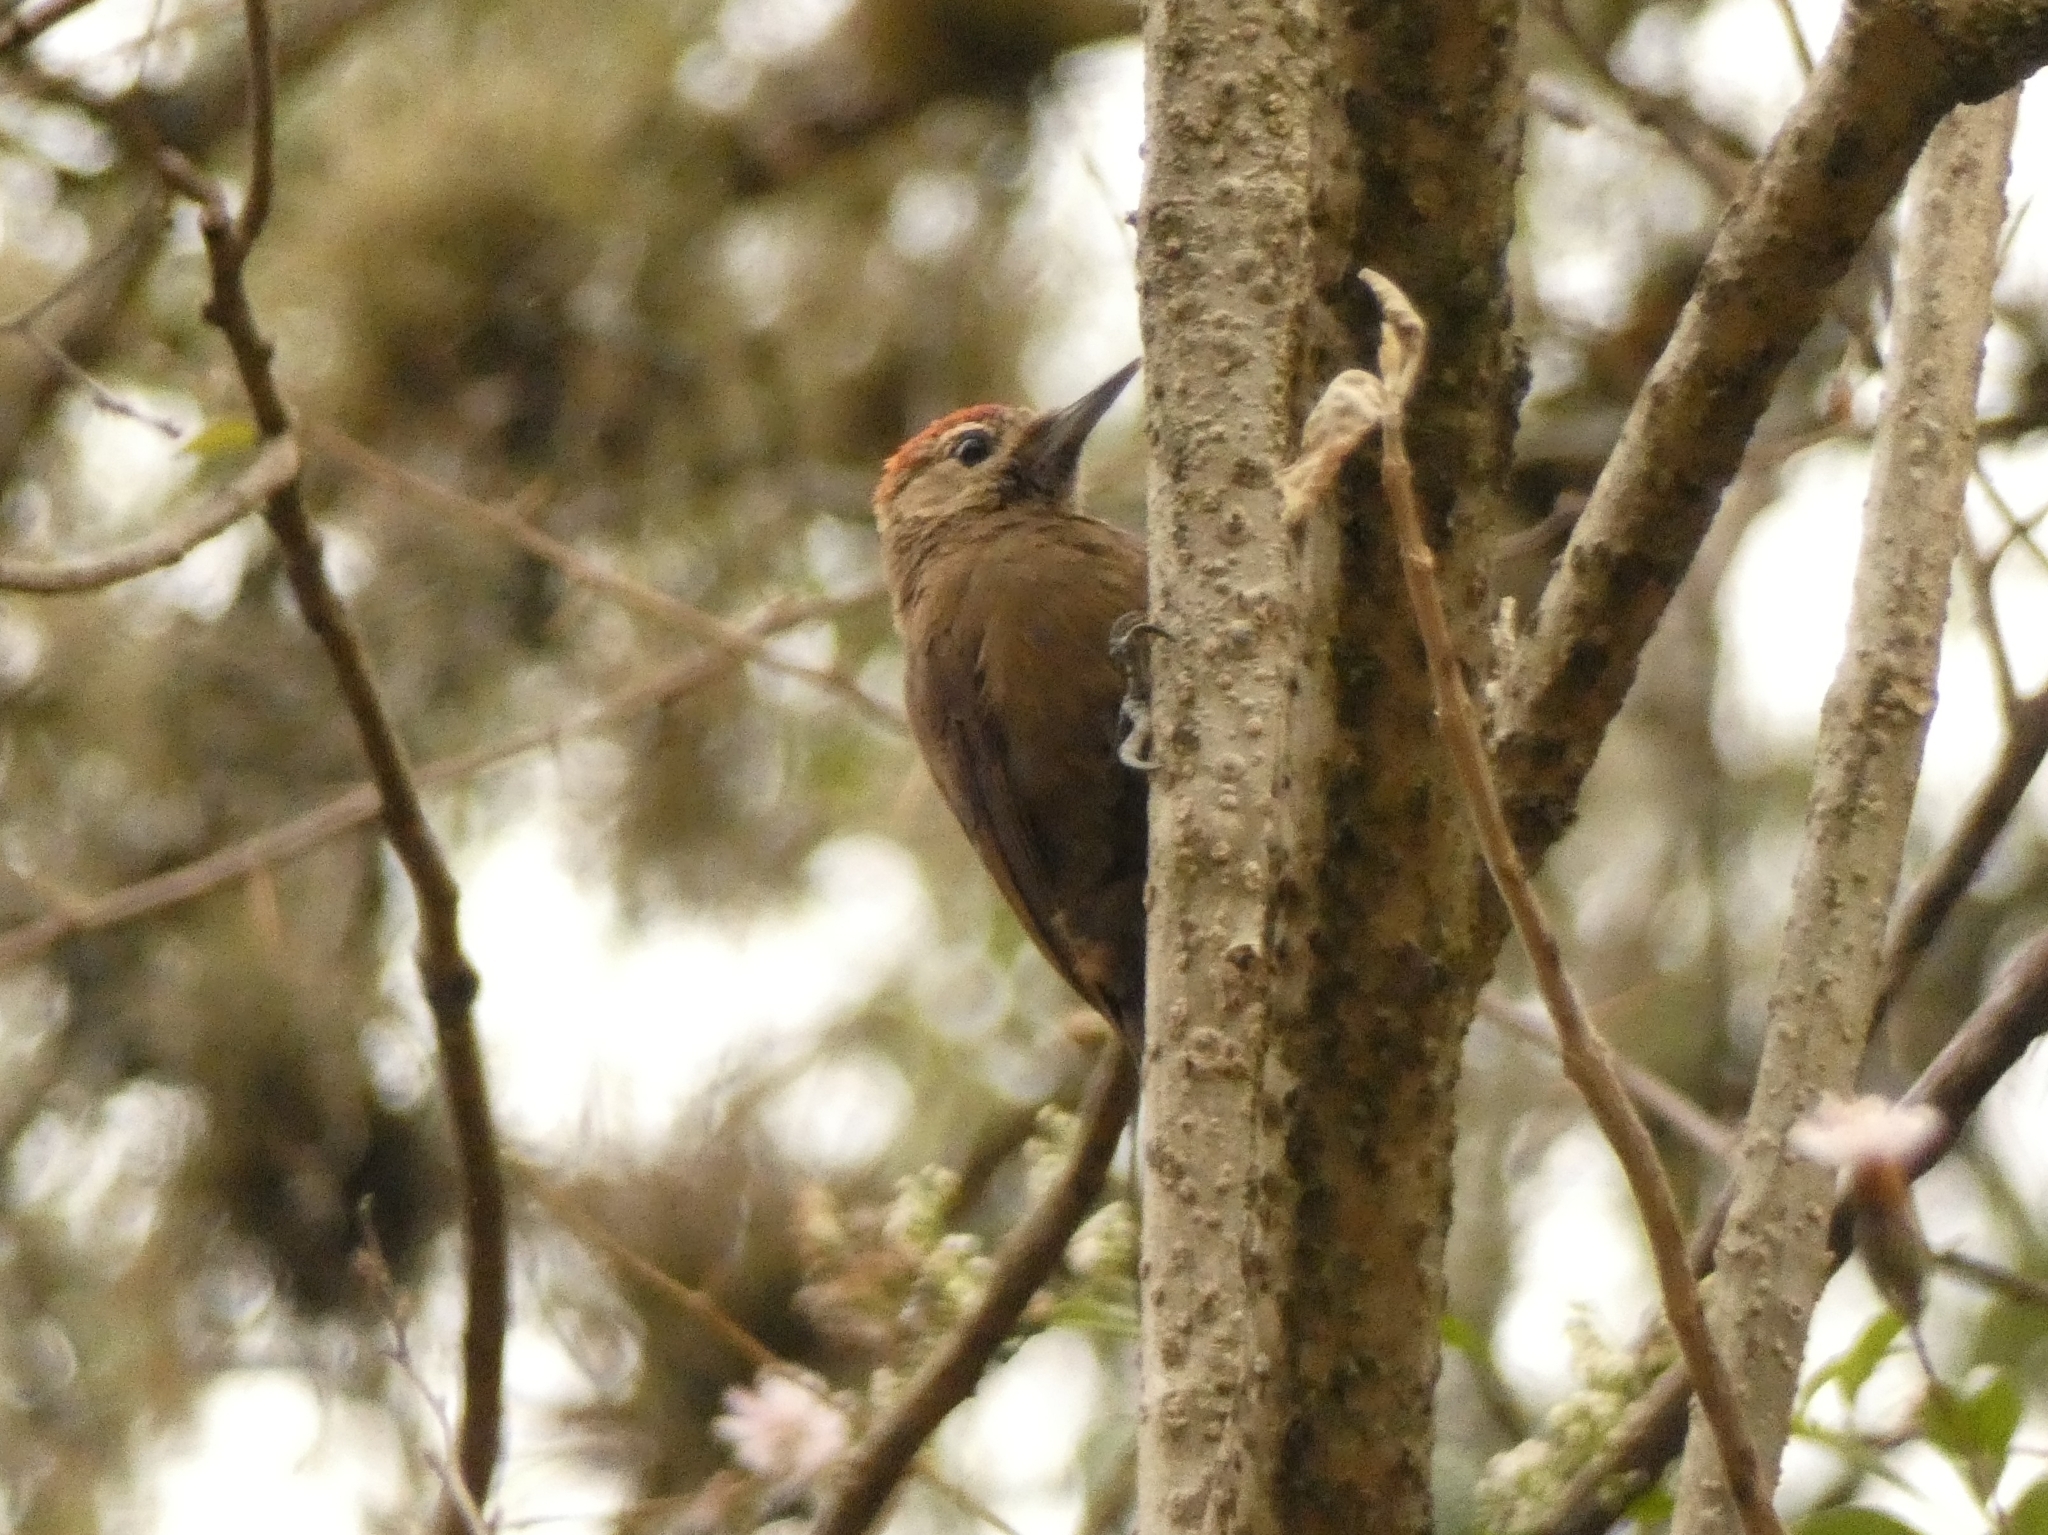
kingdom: Animalia
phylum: Chordata
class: Aves
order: Piciformes
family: Picidae
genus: Leuconotopicus
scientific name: Leuconotopicus fumigatus
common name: Smoky-brown woodpecker
